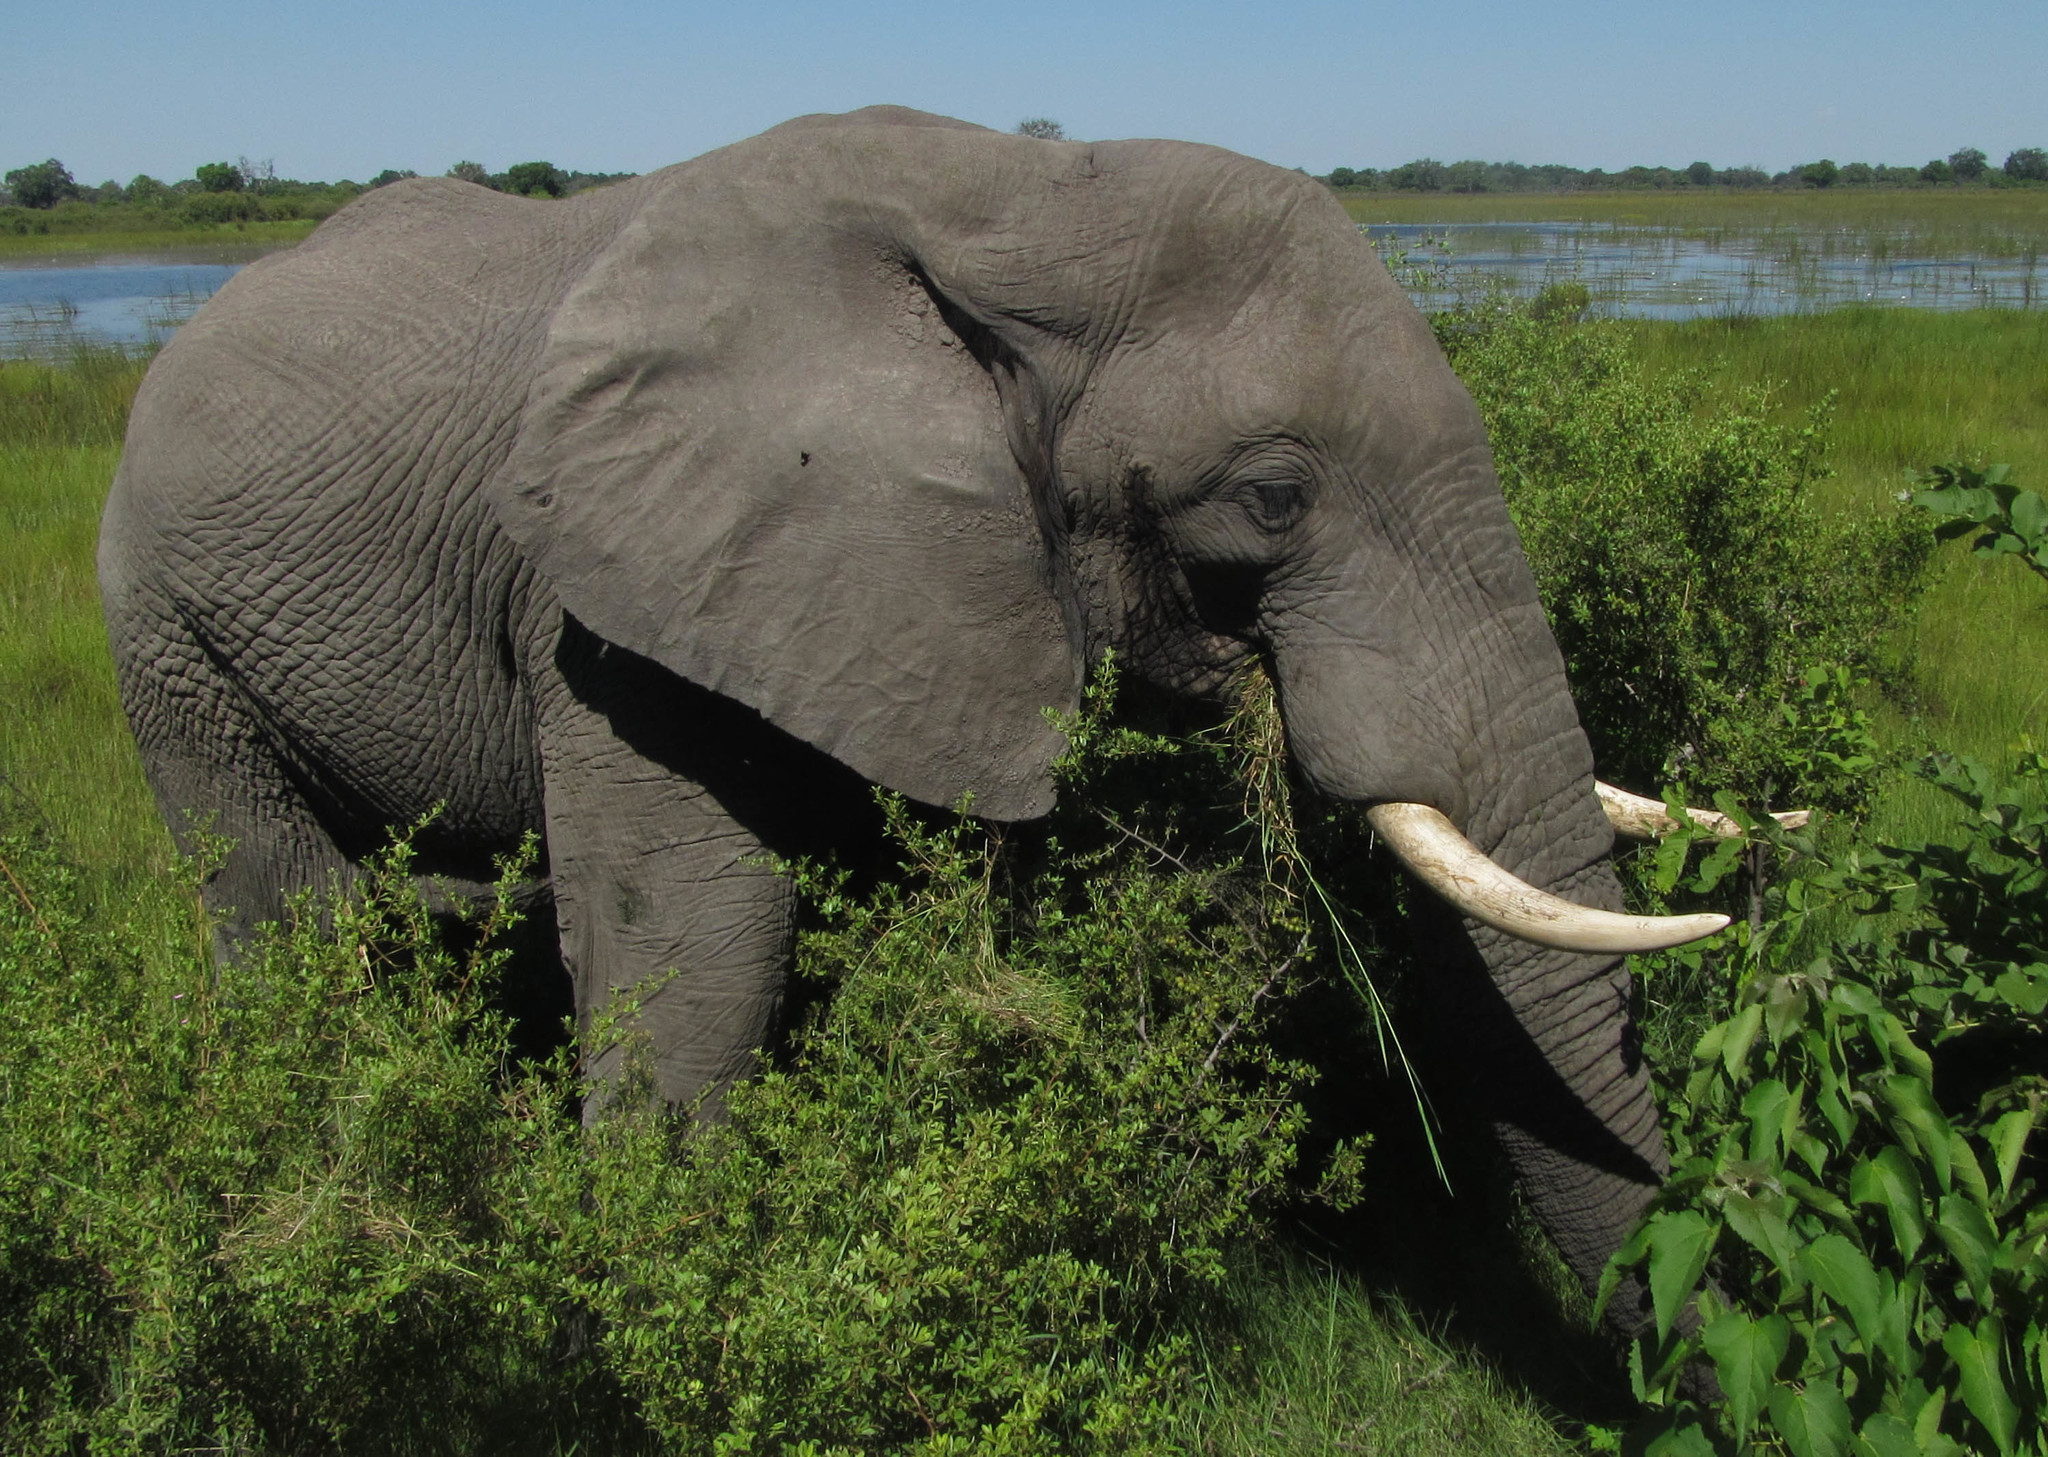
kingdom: Animalia
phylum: Chordata
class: Mammalia
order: Proboscidea
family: Elephantidae
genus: Loxodonta
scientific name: Loxodonta africana
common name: African elephant
